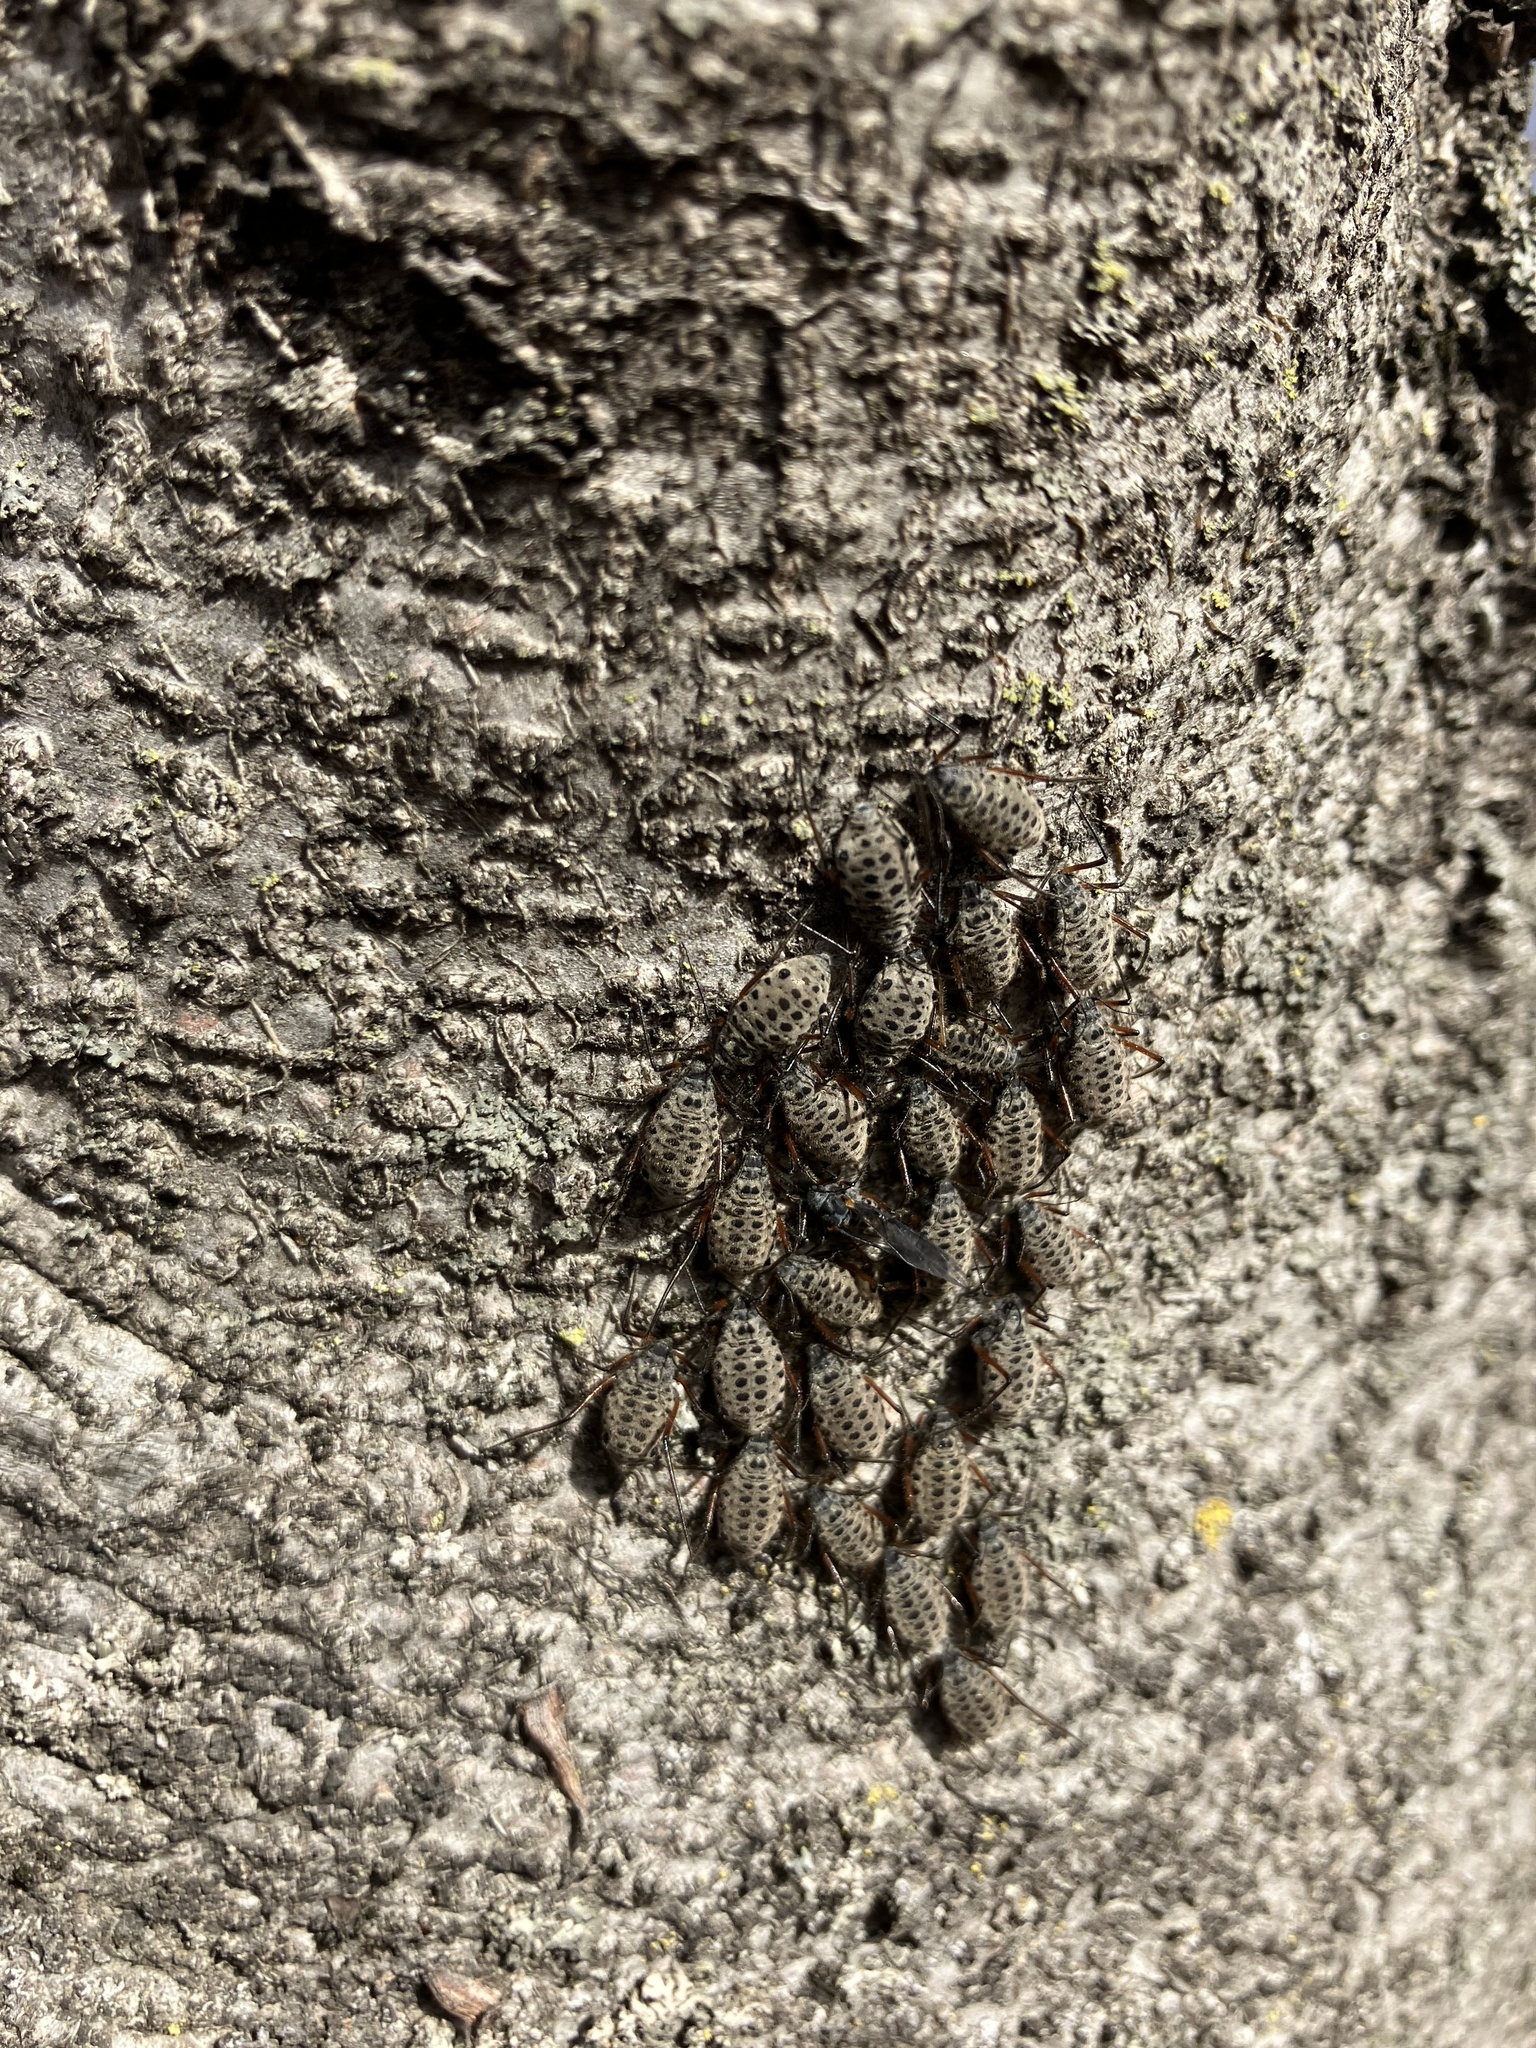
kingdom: Animalia
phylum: Arthropoda
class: Insecta
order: Hemiptera
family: Aphididae
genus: Longistigma
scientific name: Longistigma caryae
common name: Giant bark aphid
